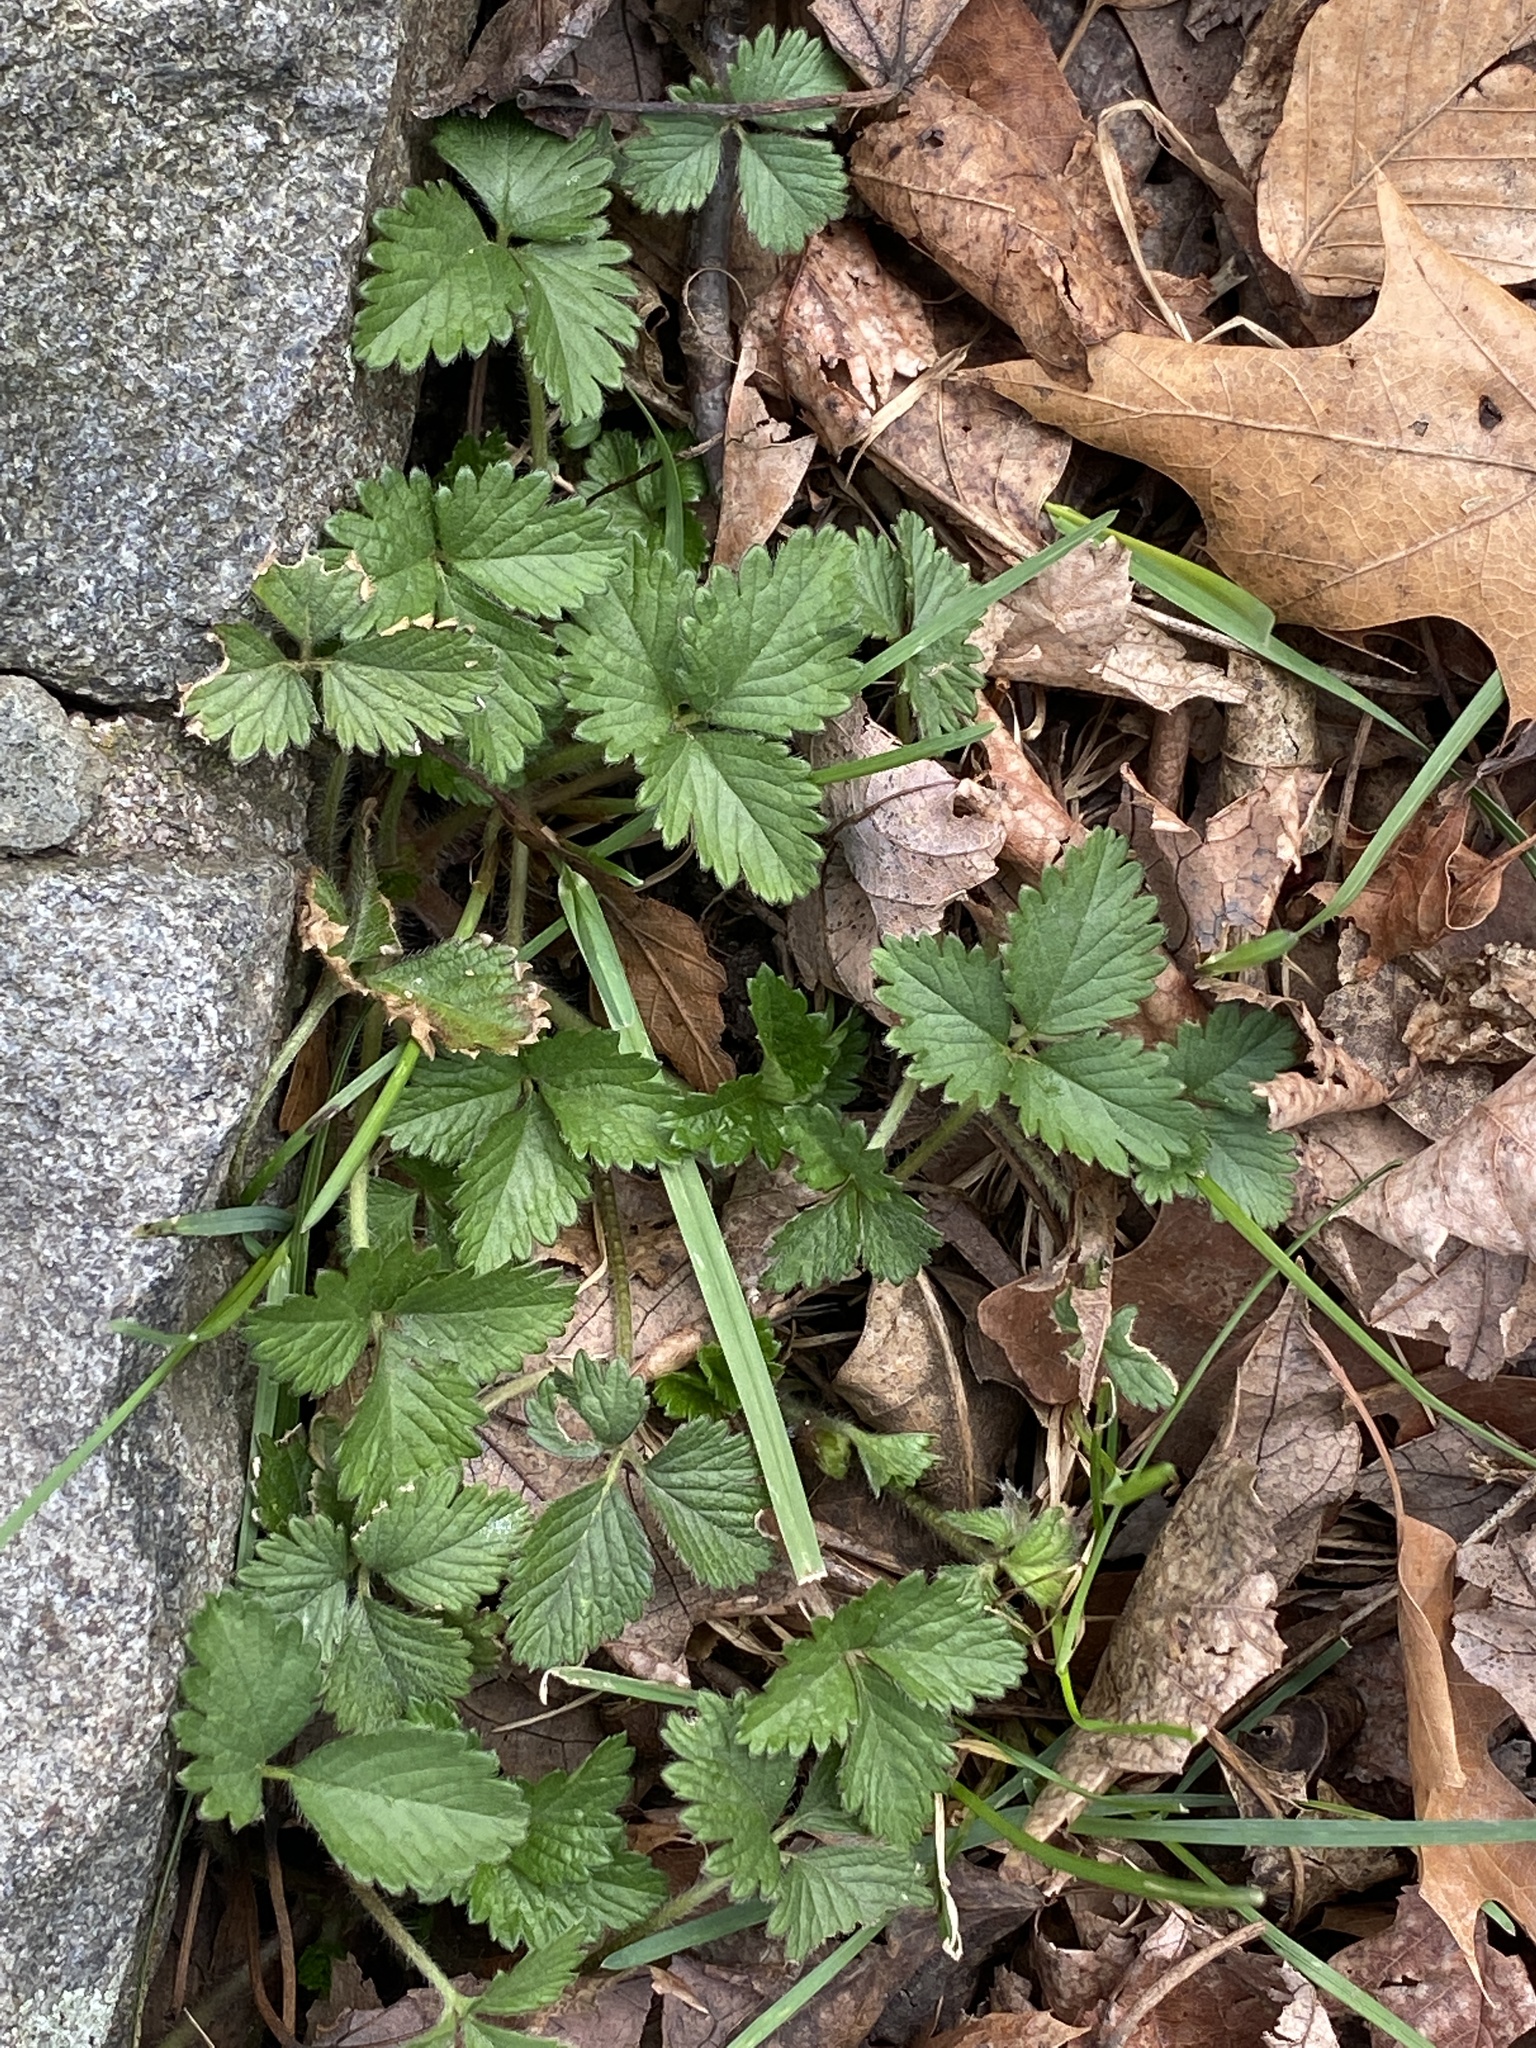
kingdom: Plantae
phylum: Tracheophyta
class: Magnoliopsida
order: Rosales
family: Rosaceae
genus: Potentilla
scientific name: Potentilla indica
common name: Yellow-flowered strawberry
